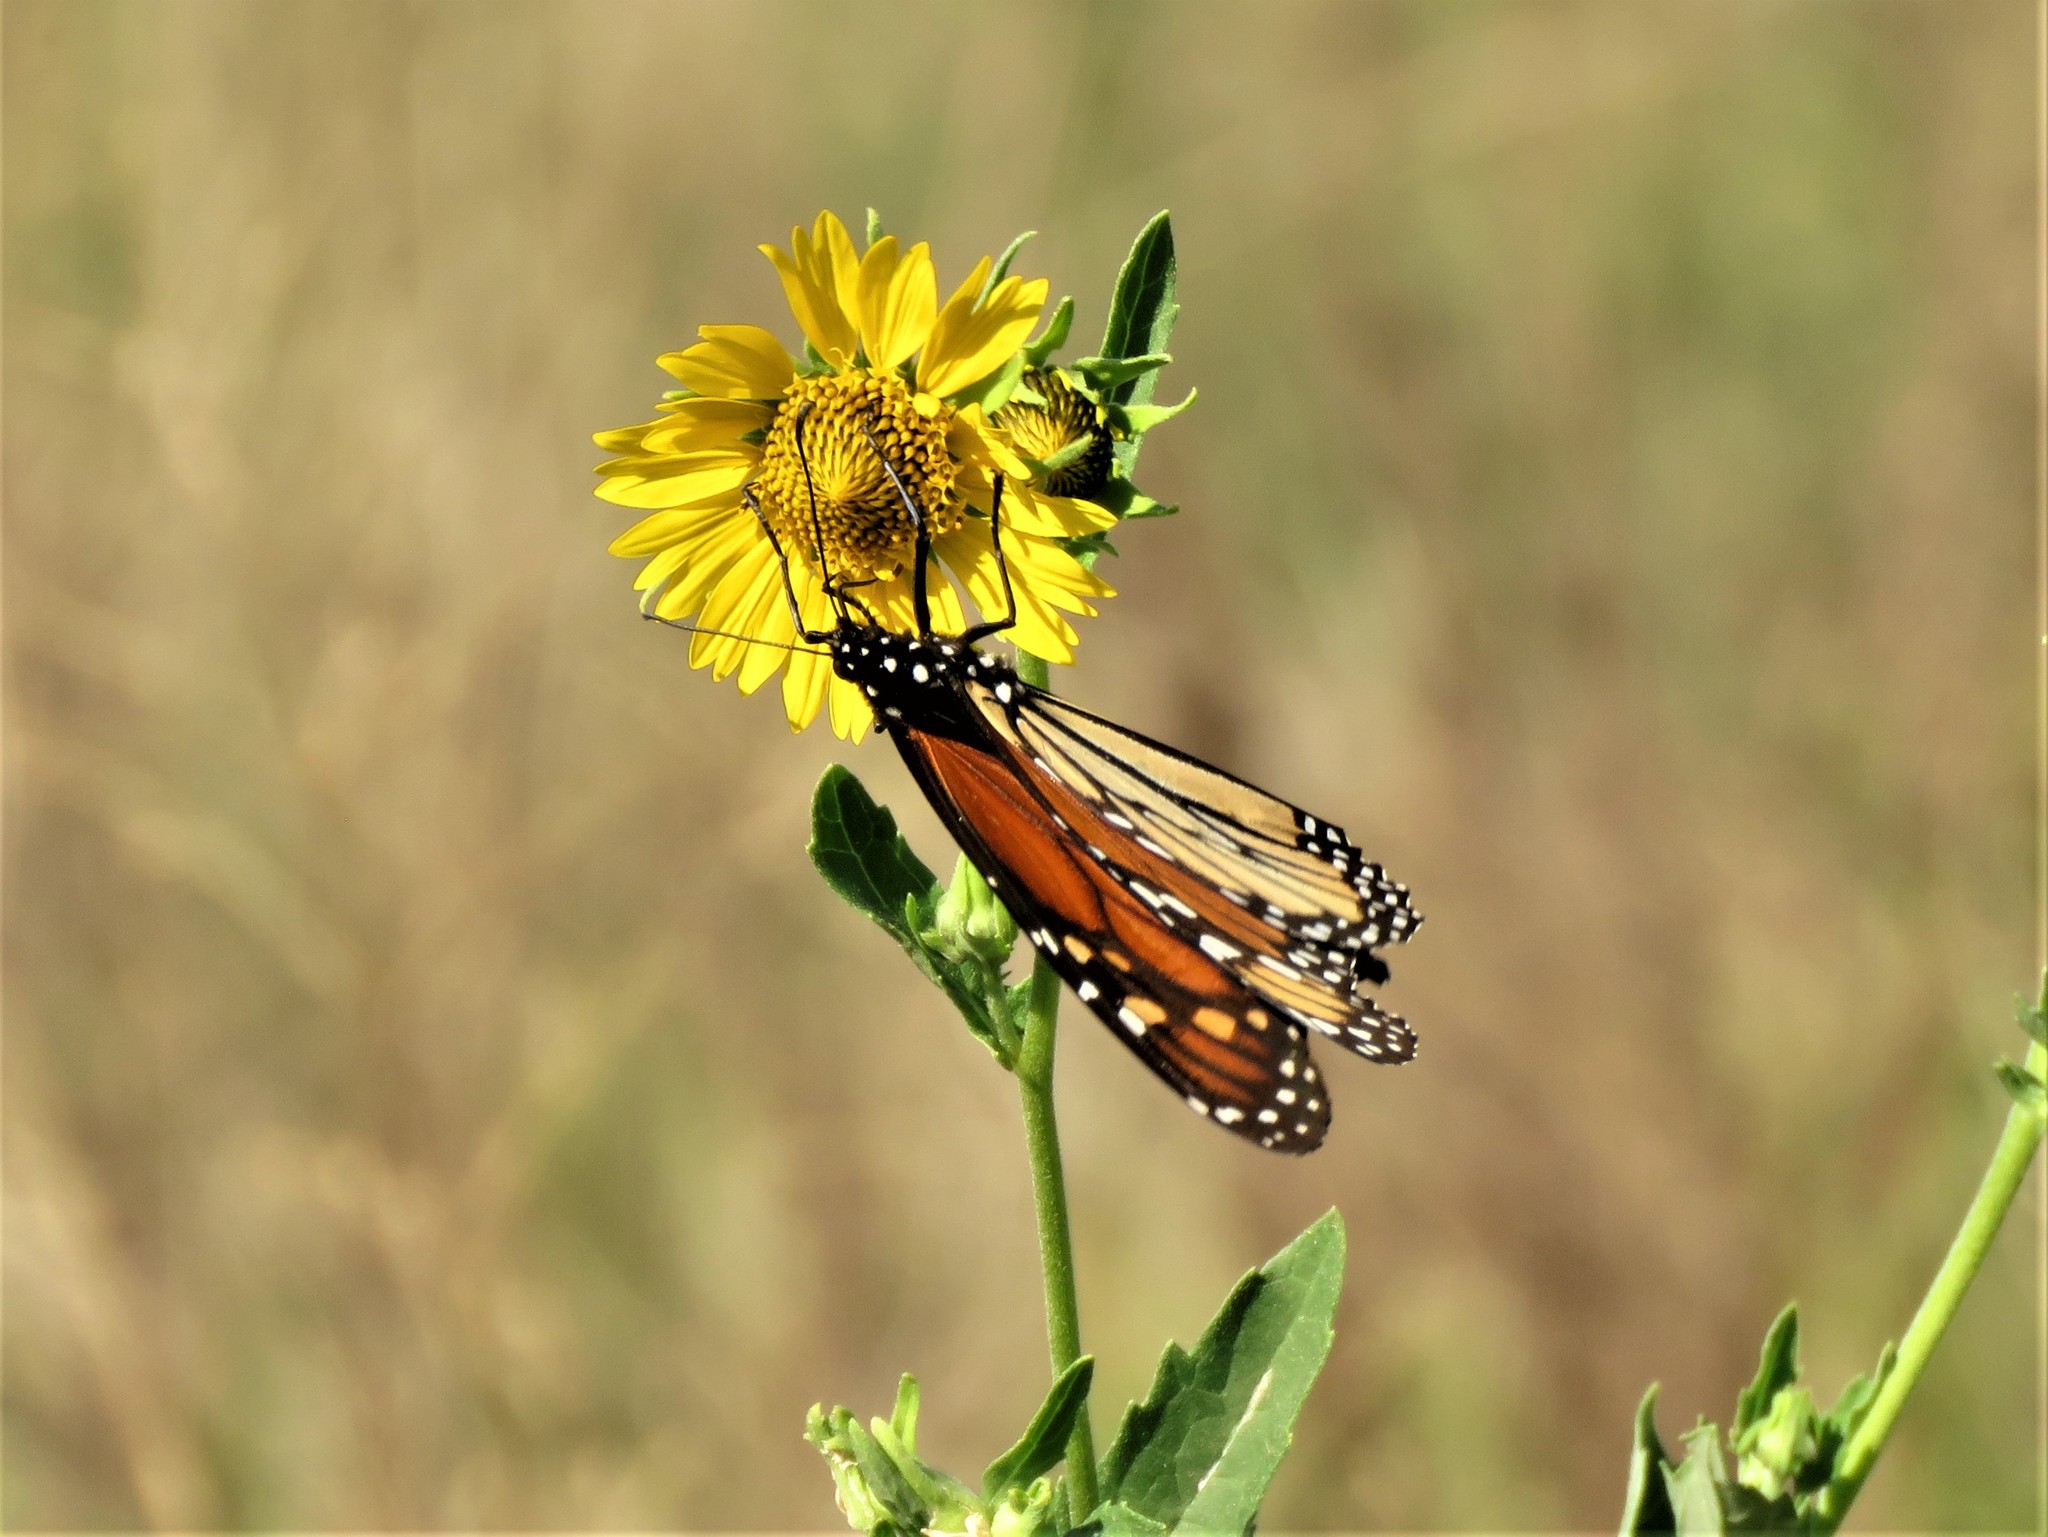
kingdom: Animalia
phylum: Arthropoda
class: Insecta
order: Lepidoptera
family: Nymphalidae
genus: Danaus
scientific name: Danaus plexippus
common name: Monarch
